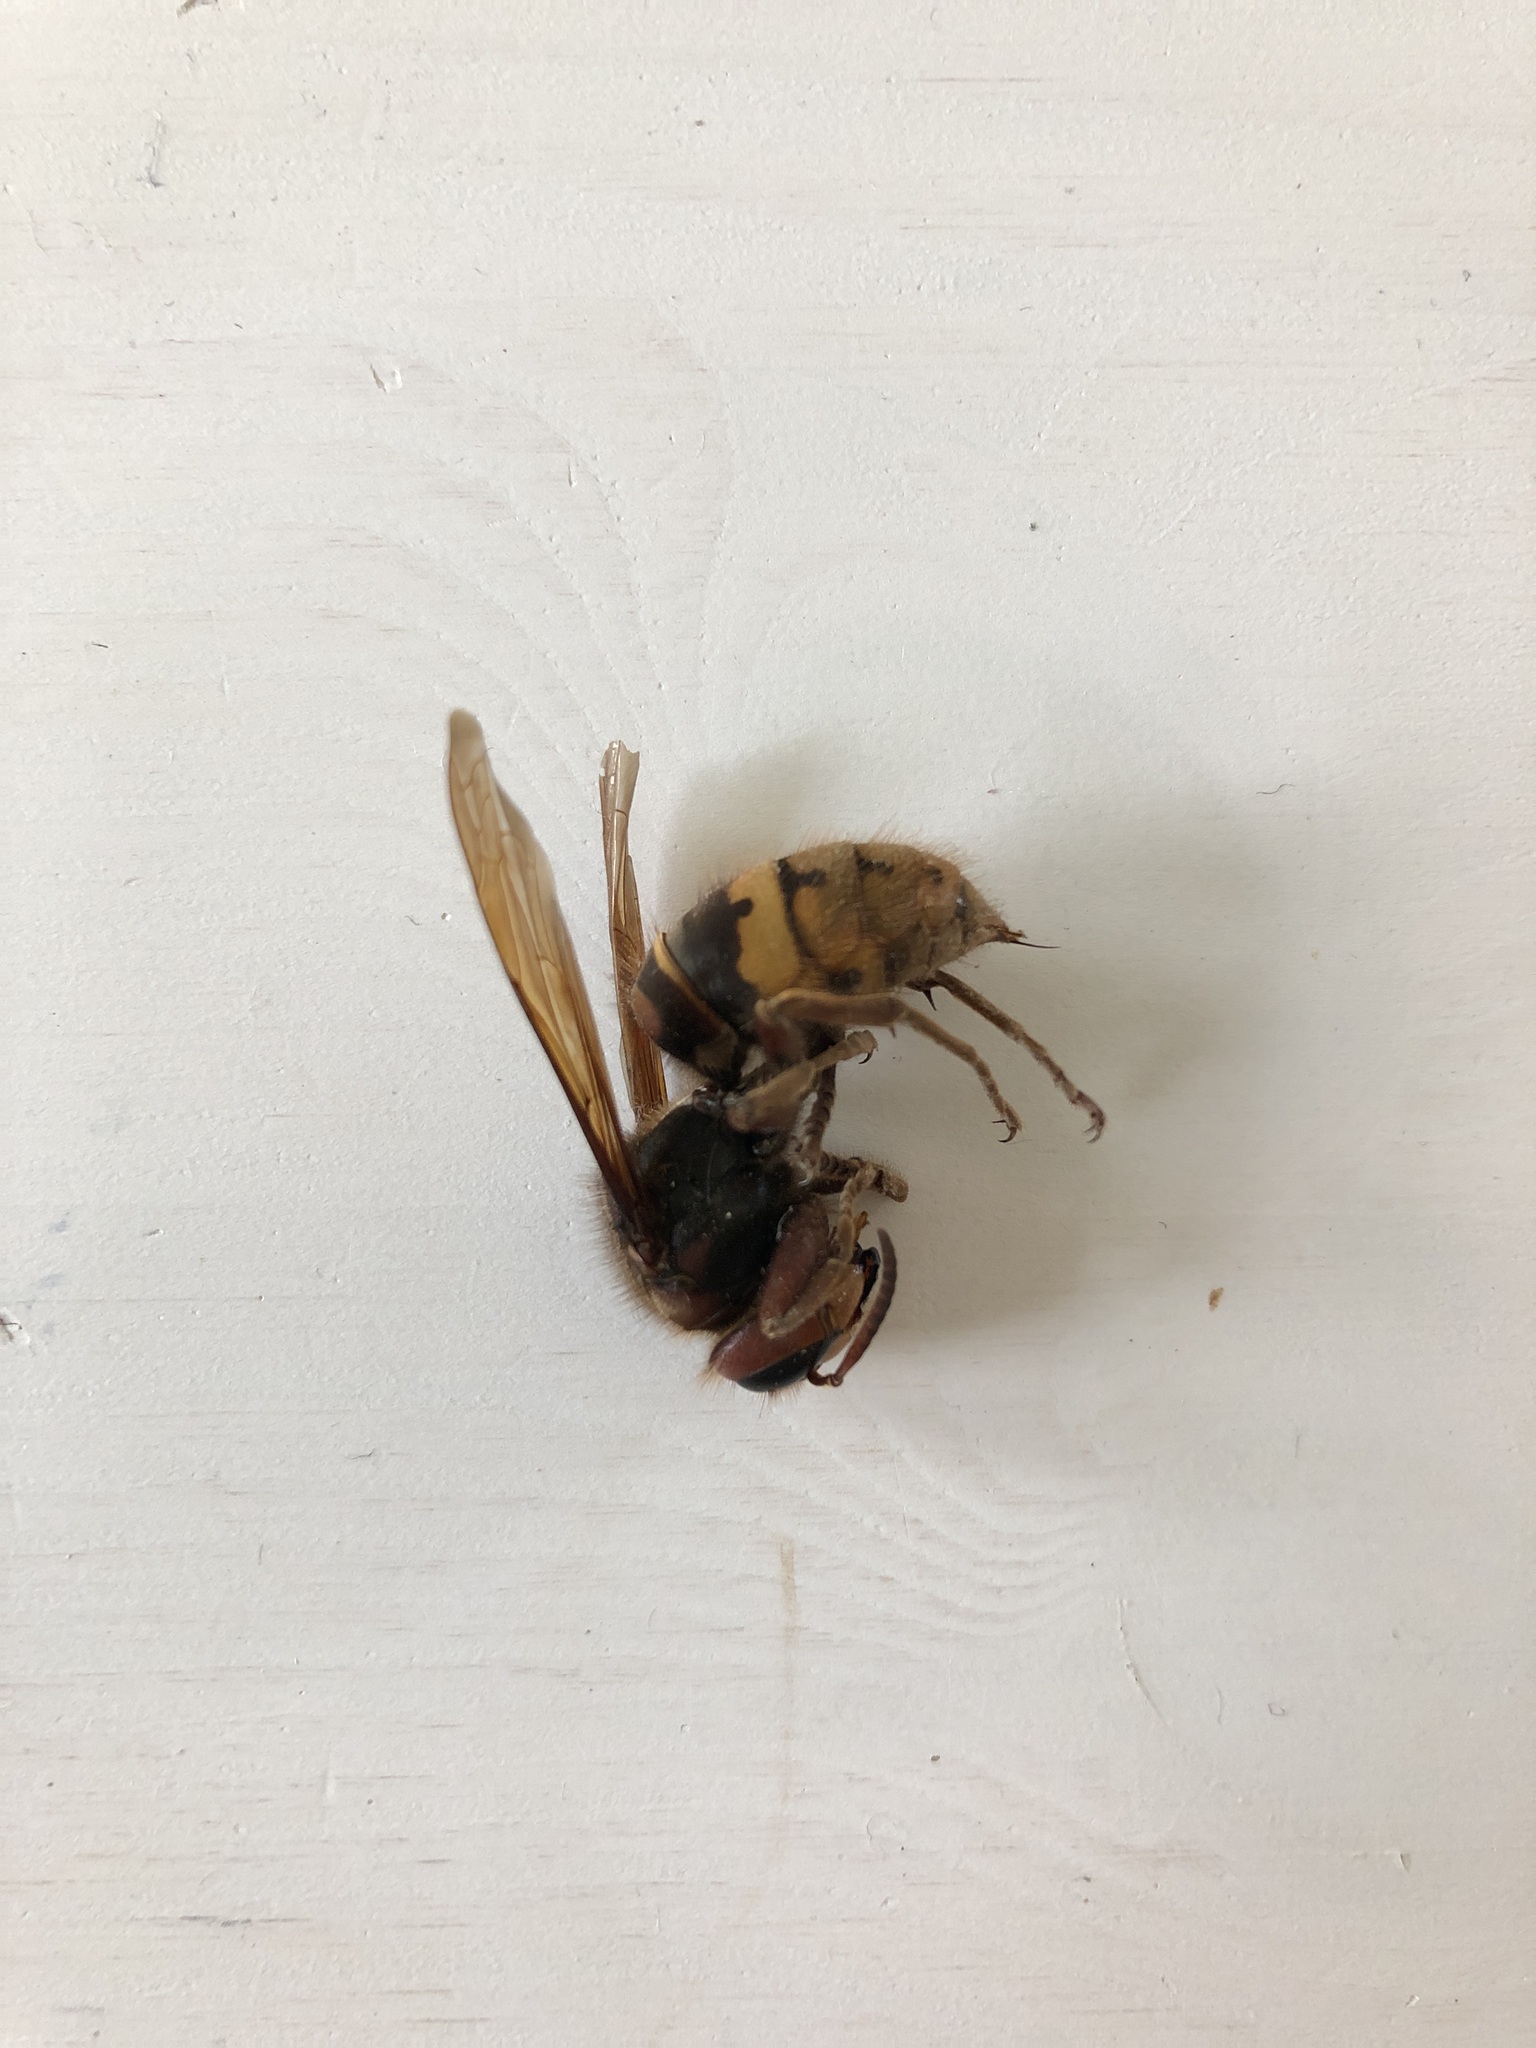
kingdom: Animalia
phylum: Arthropoda
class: Insecta
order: Hymenoptera
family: Vespidae
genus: Vespa
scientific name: Vespa crabro
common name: Hornet
